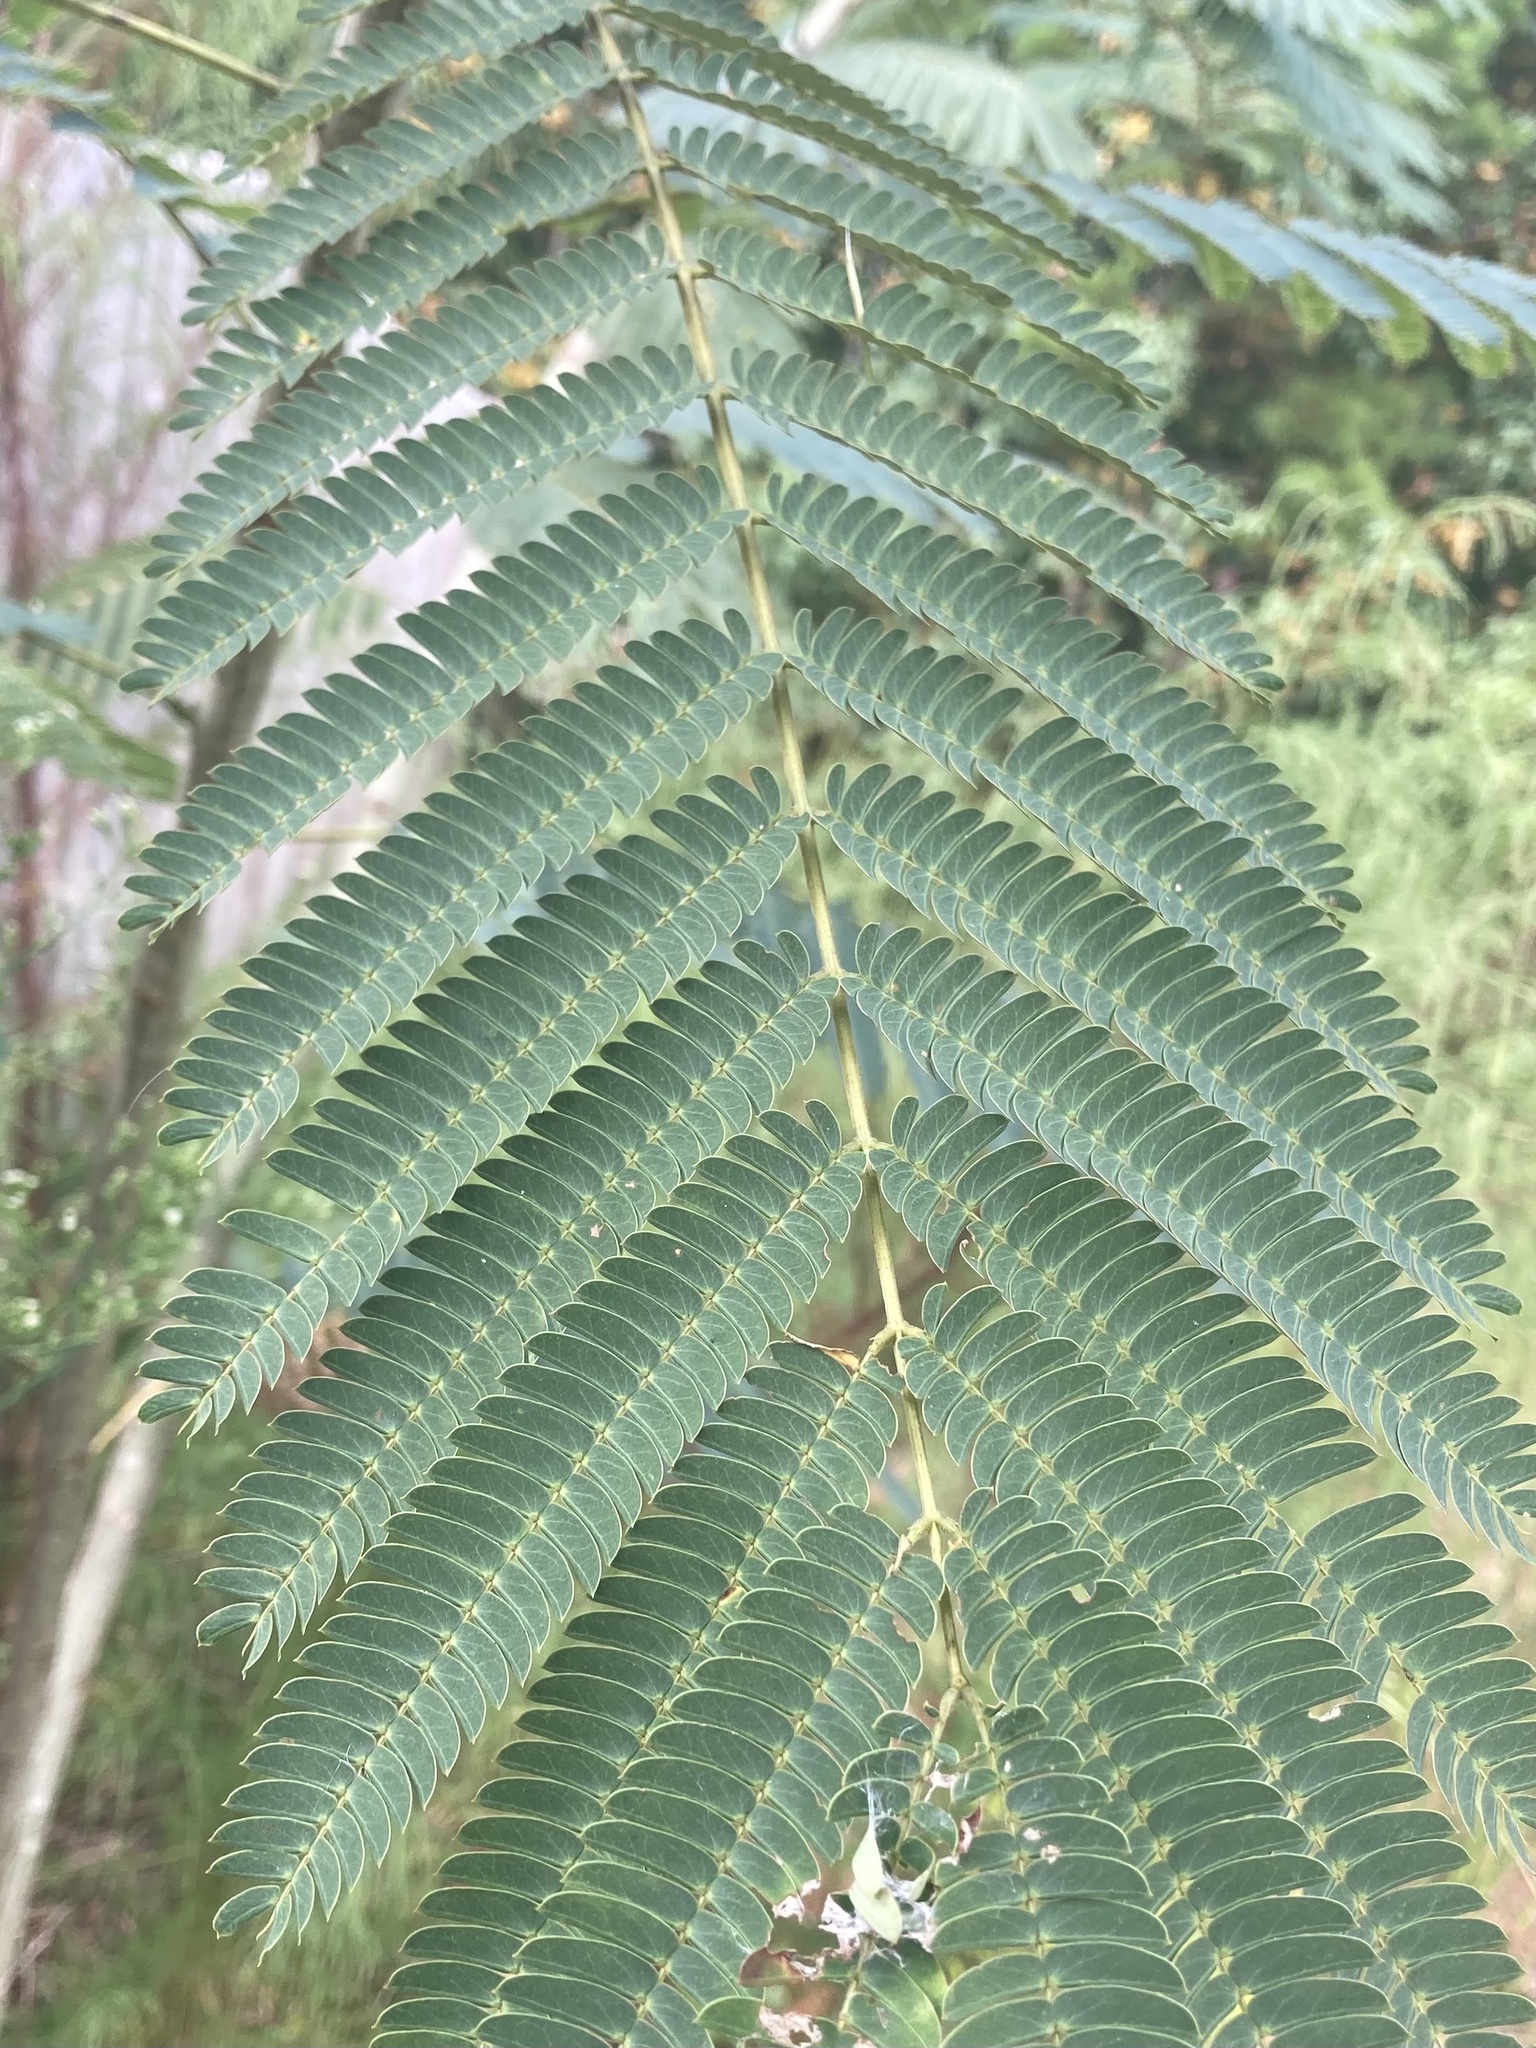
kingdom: Plantae
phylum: Tracheophyta
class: Magnoliopsida
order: Fabales
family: Fabaceae
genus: Albizia
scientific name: Albizia julibrissin
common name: Silktree
